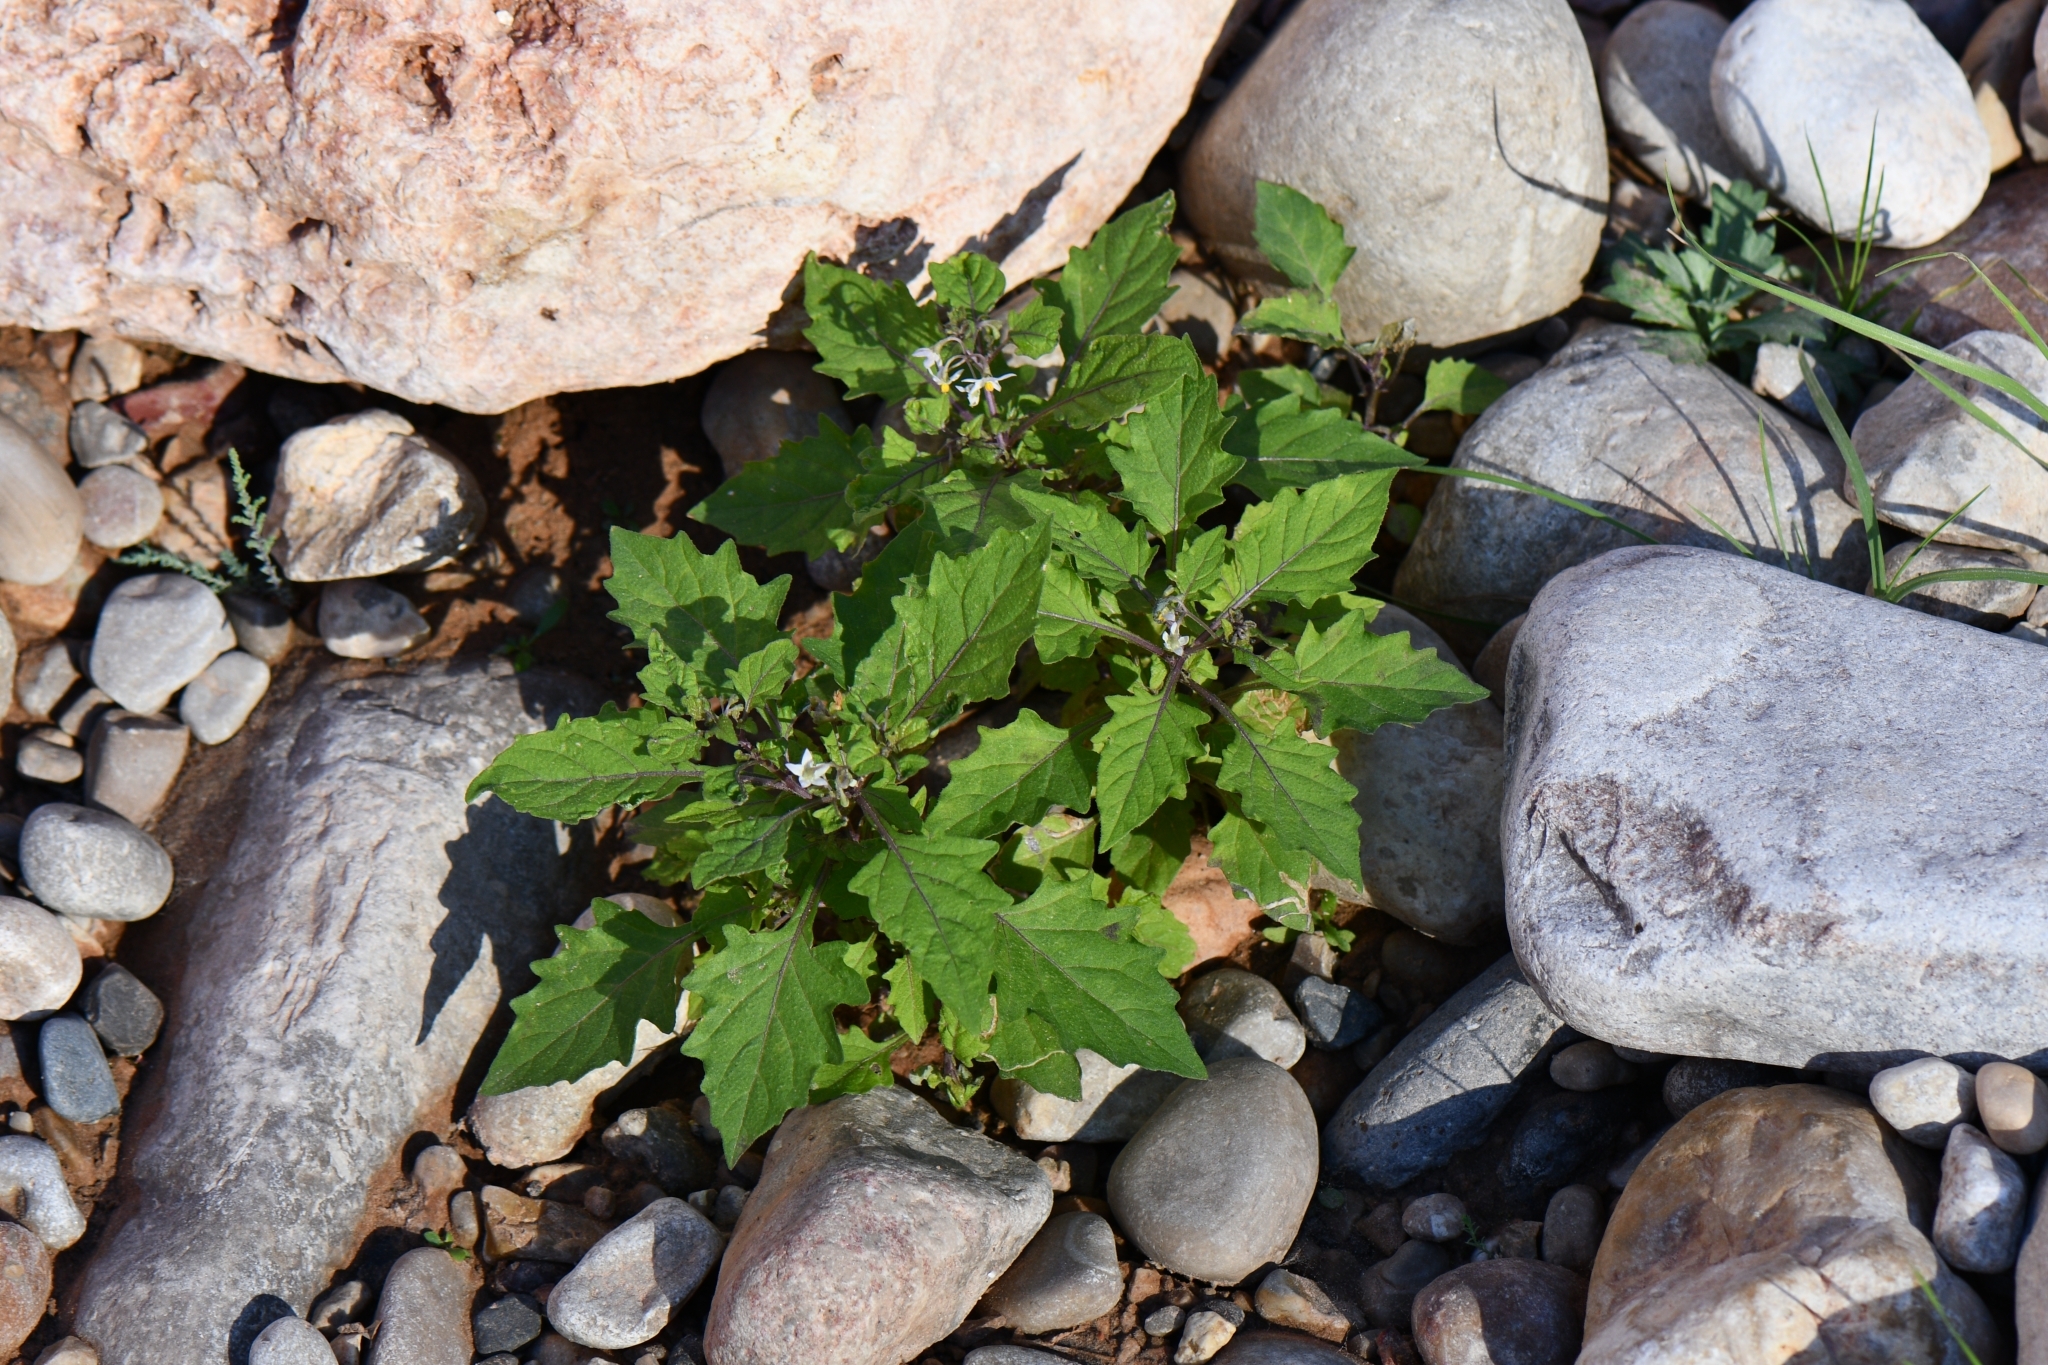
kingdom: Plantae
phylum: Tracheophyta
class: Magnoliopsida
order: Solanales
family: Solanaceae
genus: Solanum
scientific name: Solanum nigrum
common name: Black nightshade
